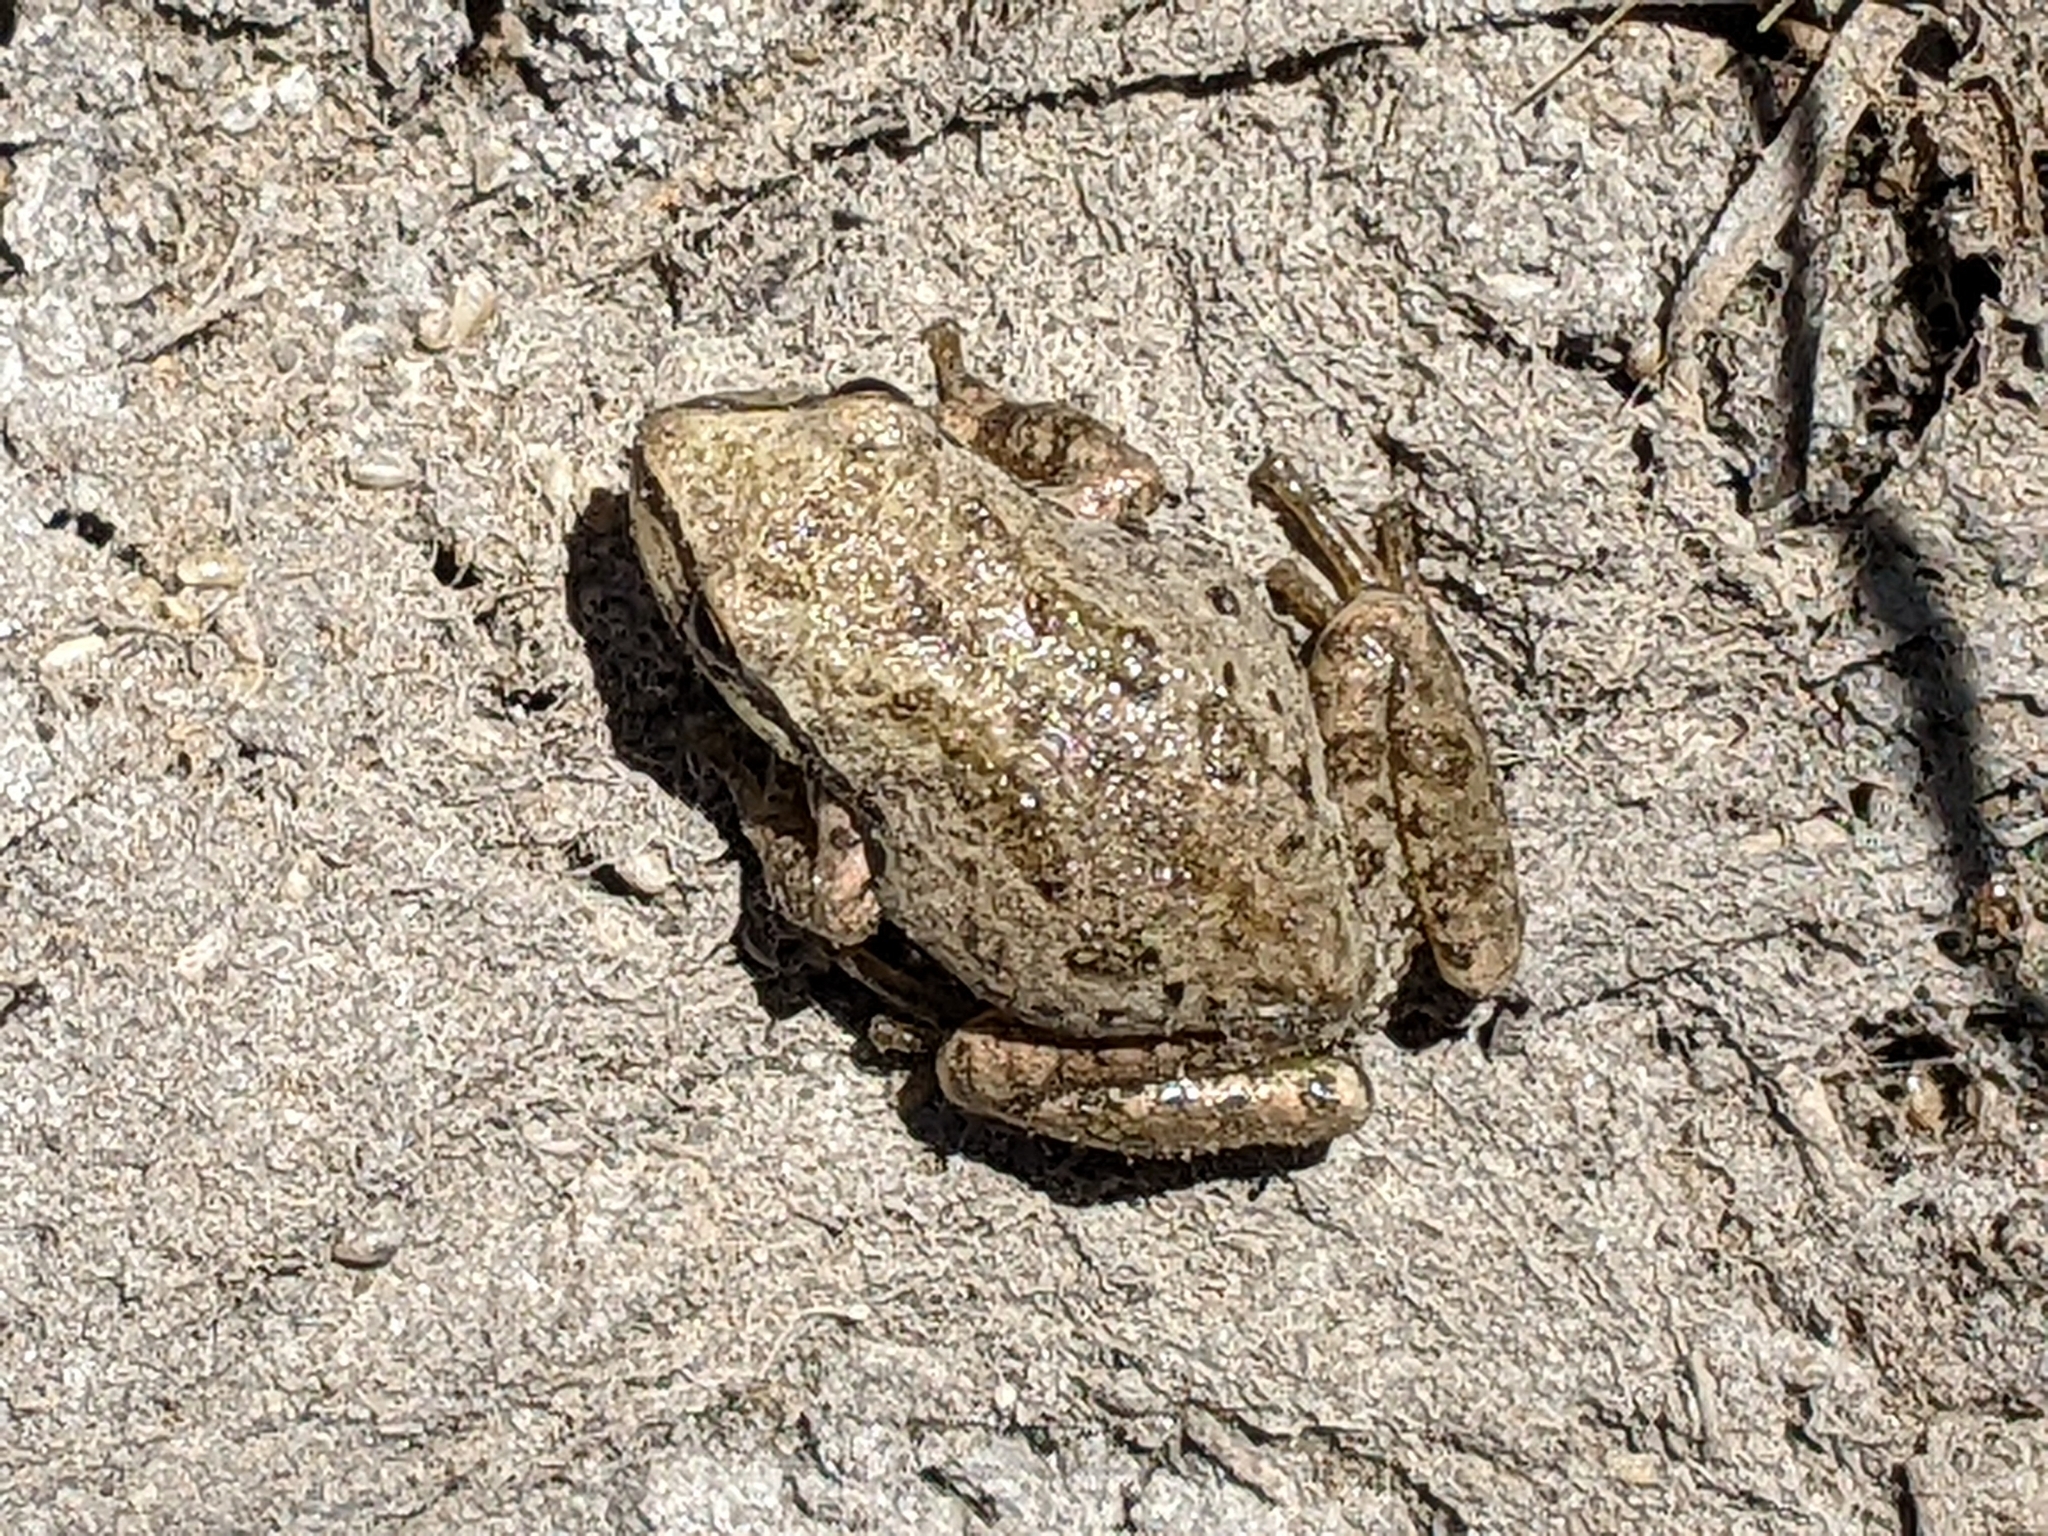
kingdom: Animalia
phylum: Chordata
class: Amphibia
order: Anura
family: Hylidae
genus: Pseudacris
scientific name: Pseudacris regilla
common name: Pacific chorus frog
